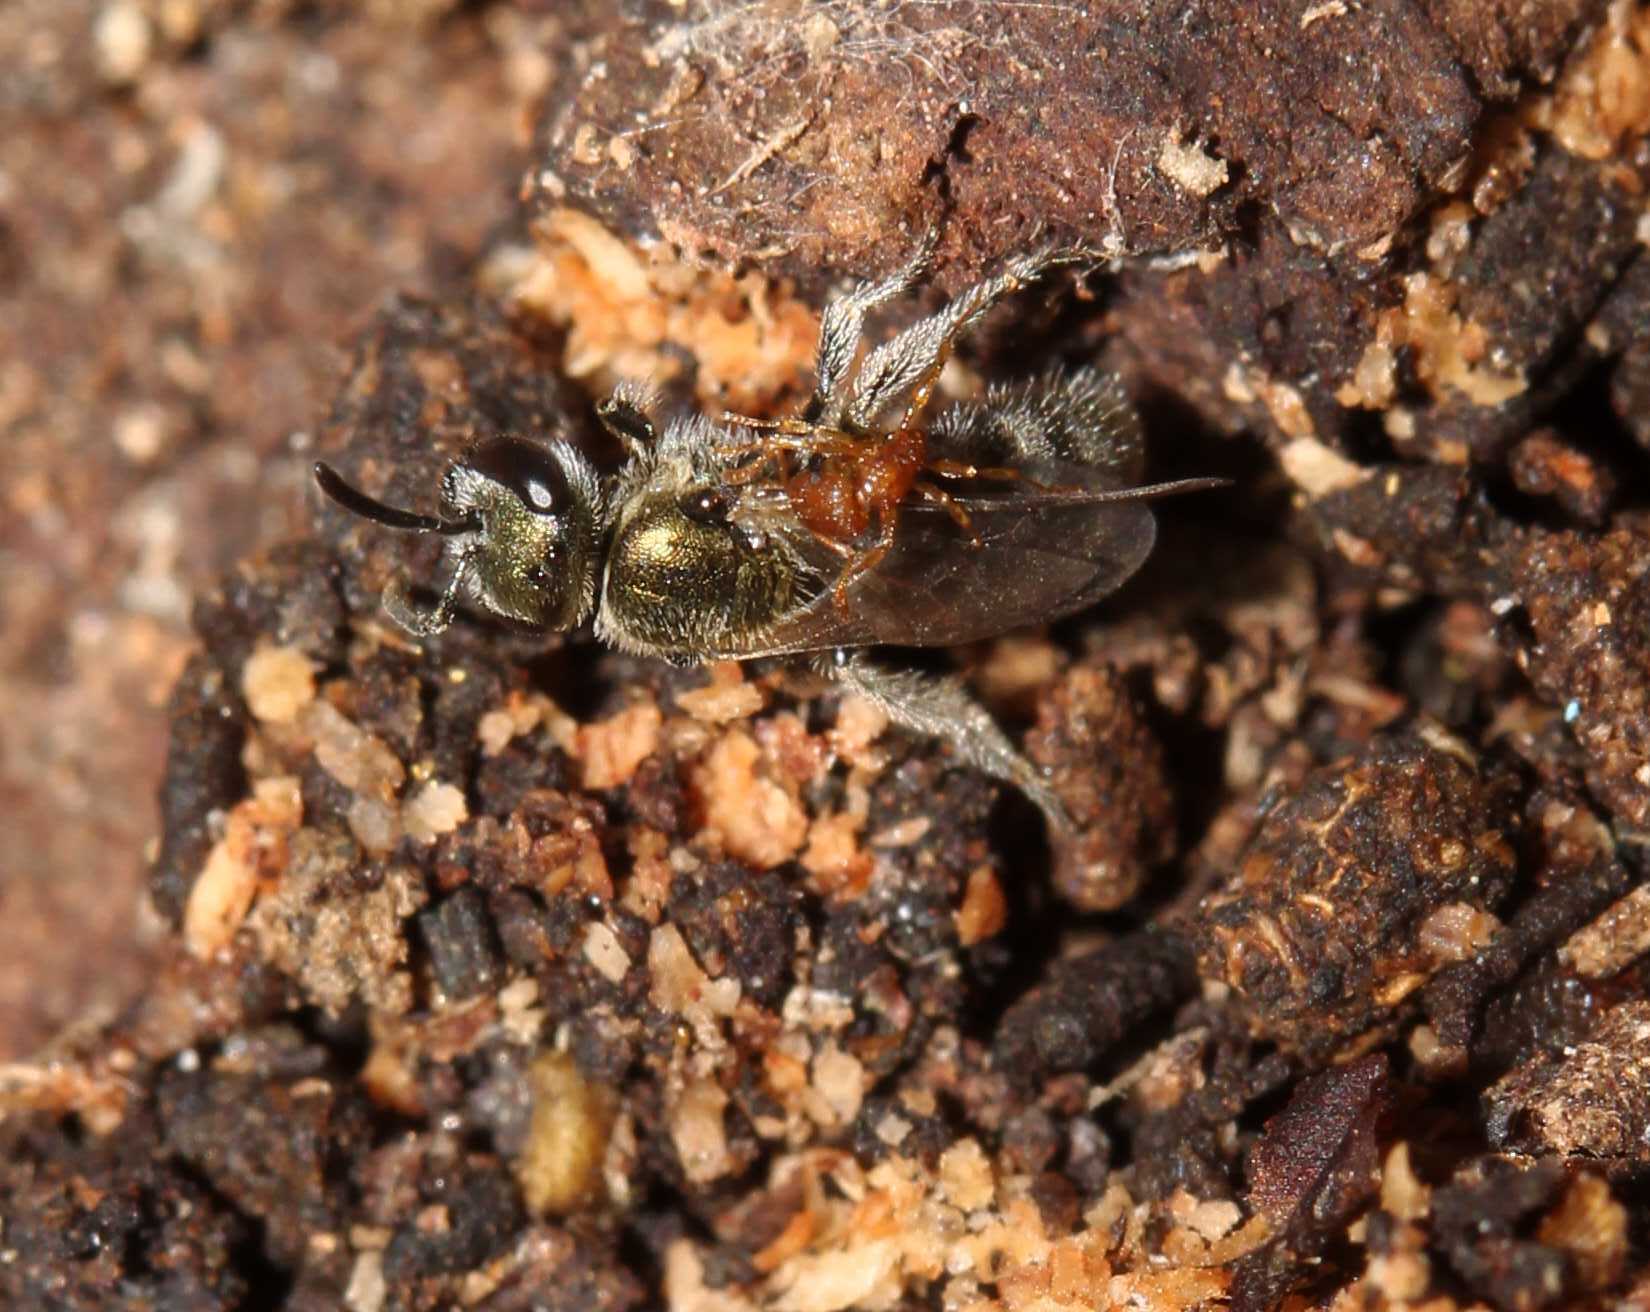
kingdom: Animalia
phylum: Arthropoda
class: Insecta
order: Hymenoptera
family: Formicidae
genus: Tetramorium
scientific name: Tetramorium bicarinatum
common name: Guinea ant
